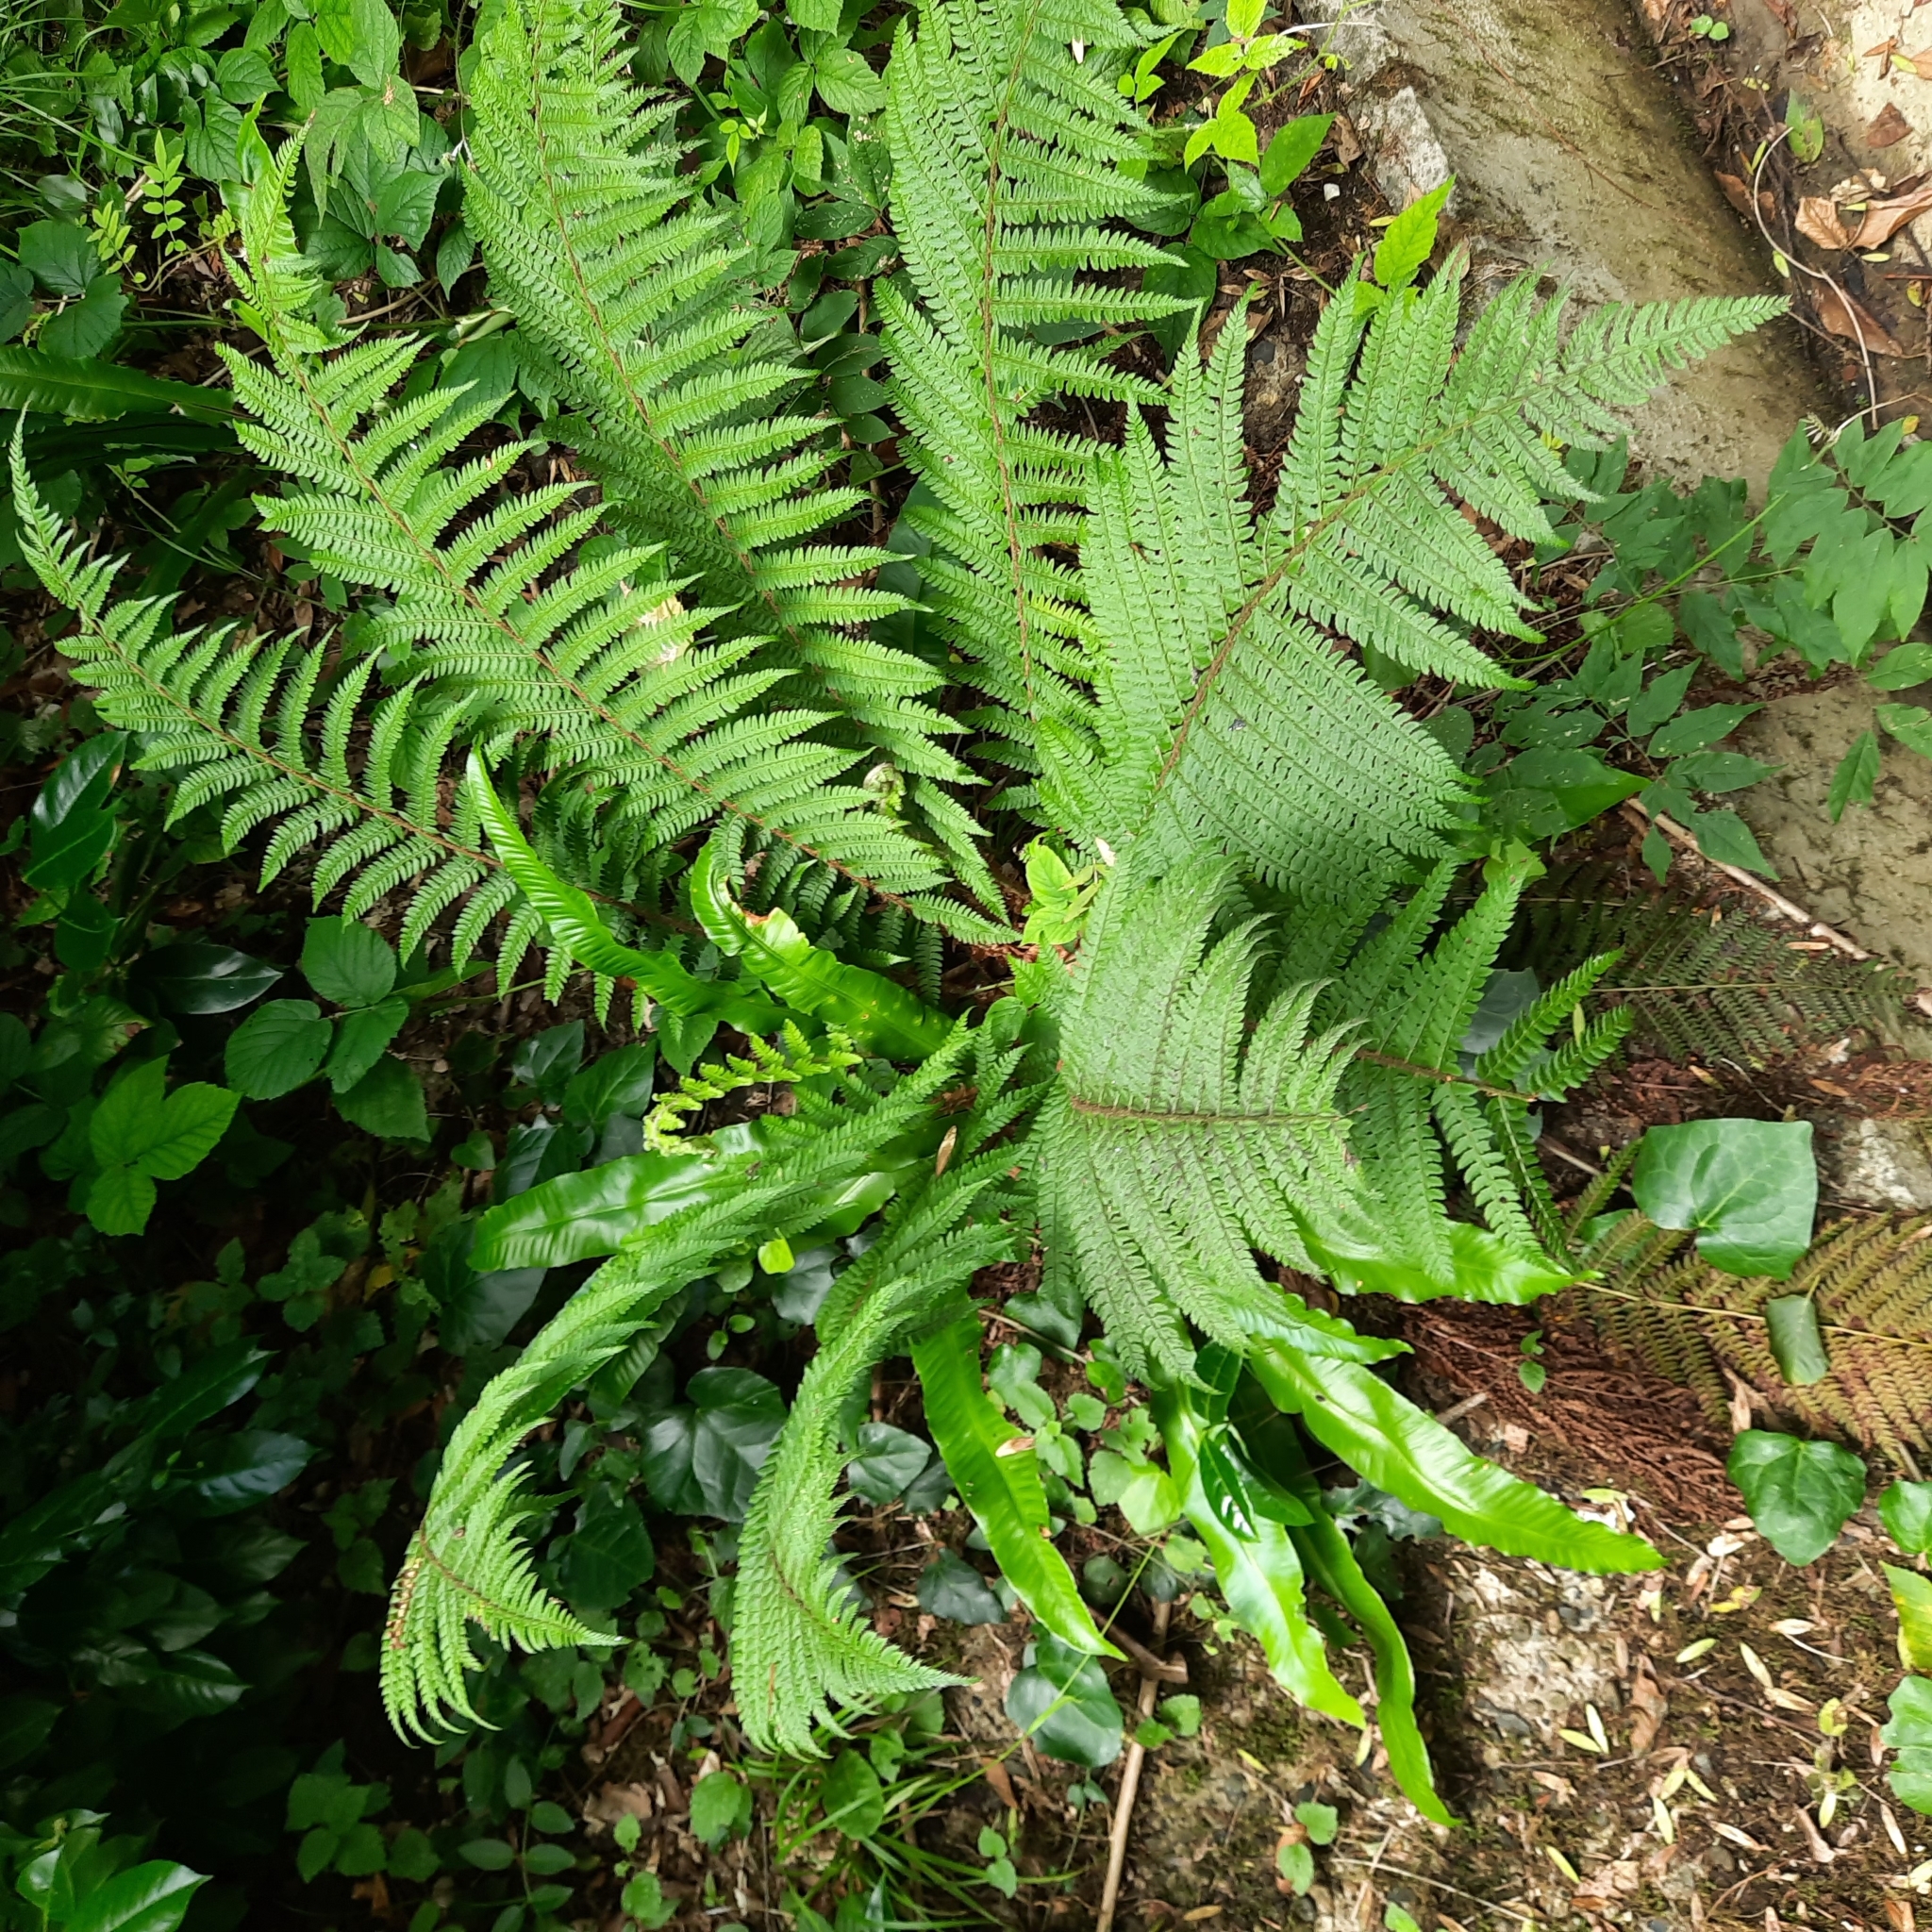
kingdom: Plantae
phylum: Tracheophyta
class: Polypodiopsida
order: Polypodiales
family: Dryopteridaceae
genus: Polystichum
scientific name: Polystichum setiferum
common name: Soft shield-fern
